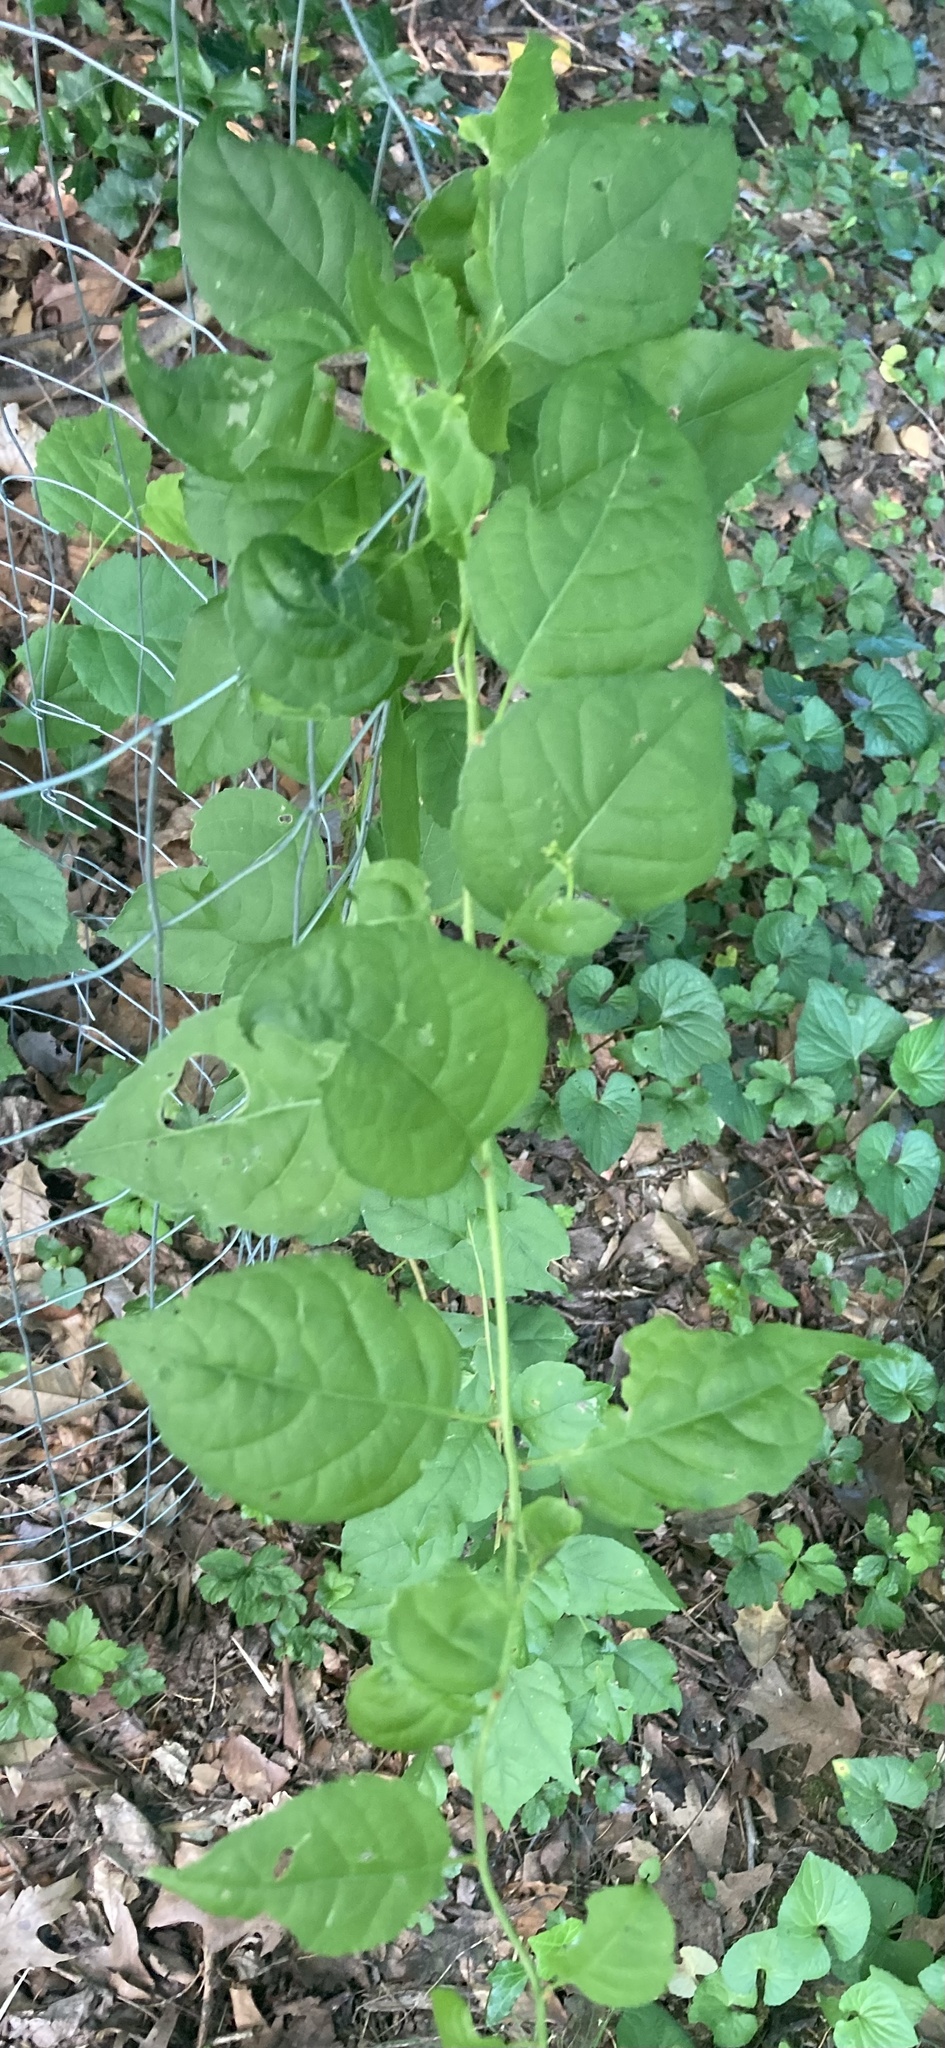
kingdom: Plantae
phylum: Tracheophyta
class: Magnoliopsida
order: Celastrales
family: Celastraceae
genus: Celastrus
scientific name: Celastrus orbiculatus
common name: Oriental bittersweet
